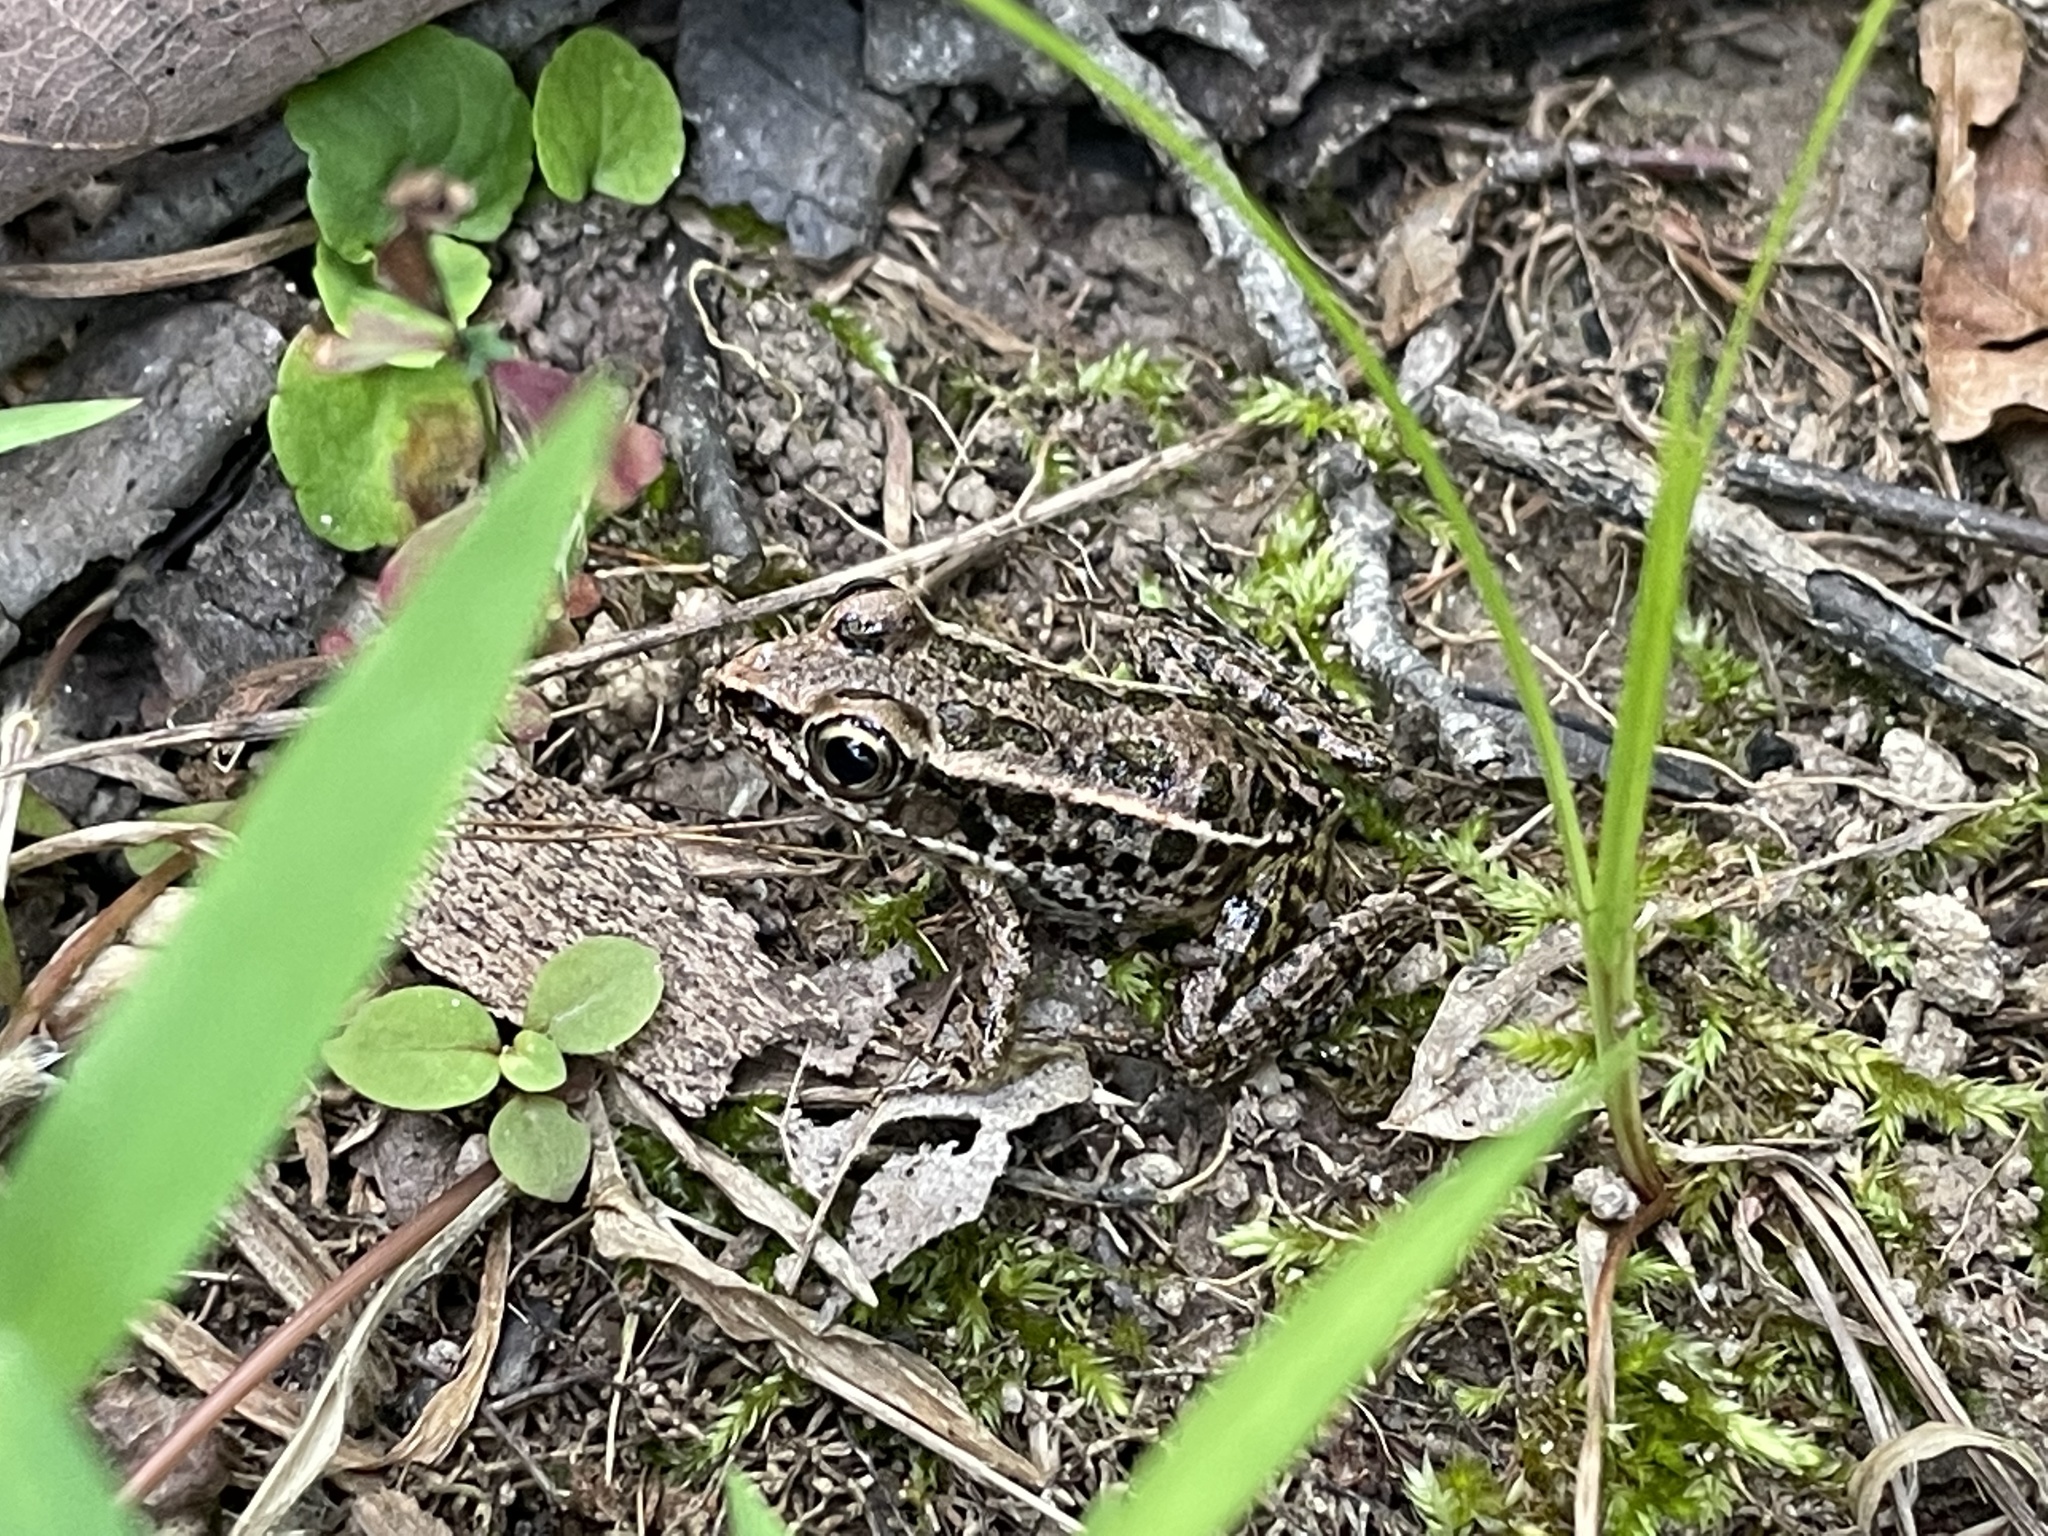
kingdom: Animalia
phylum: Chordata
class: Amphibia
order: Anura
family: Ranidae
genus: Lithobates
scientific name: Lithobates palustris
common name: Pickerel frog
